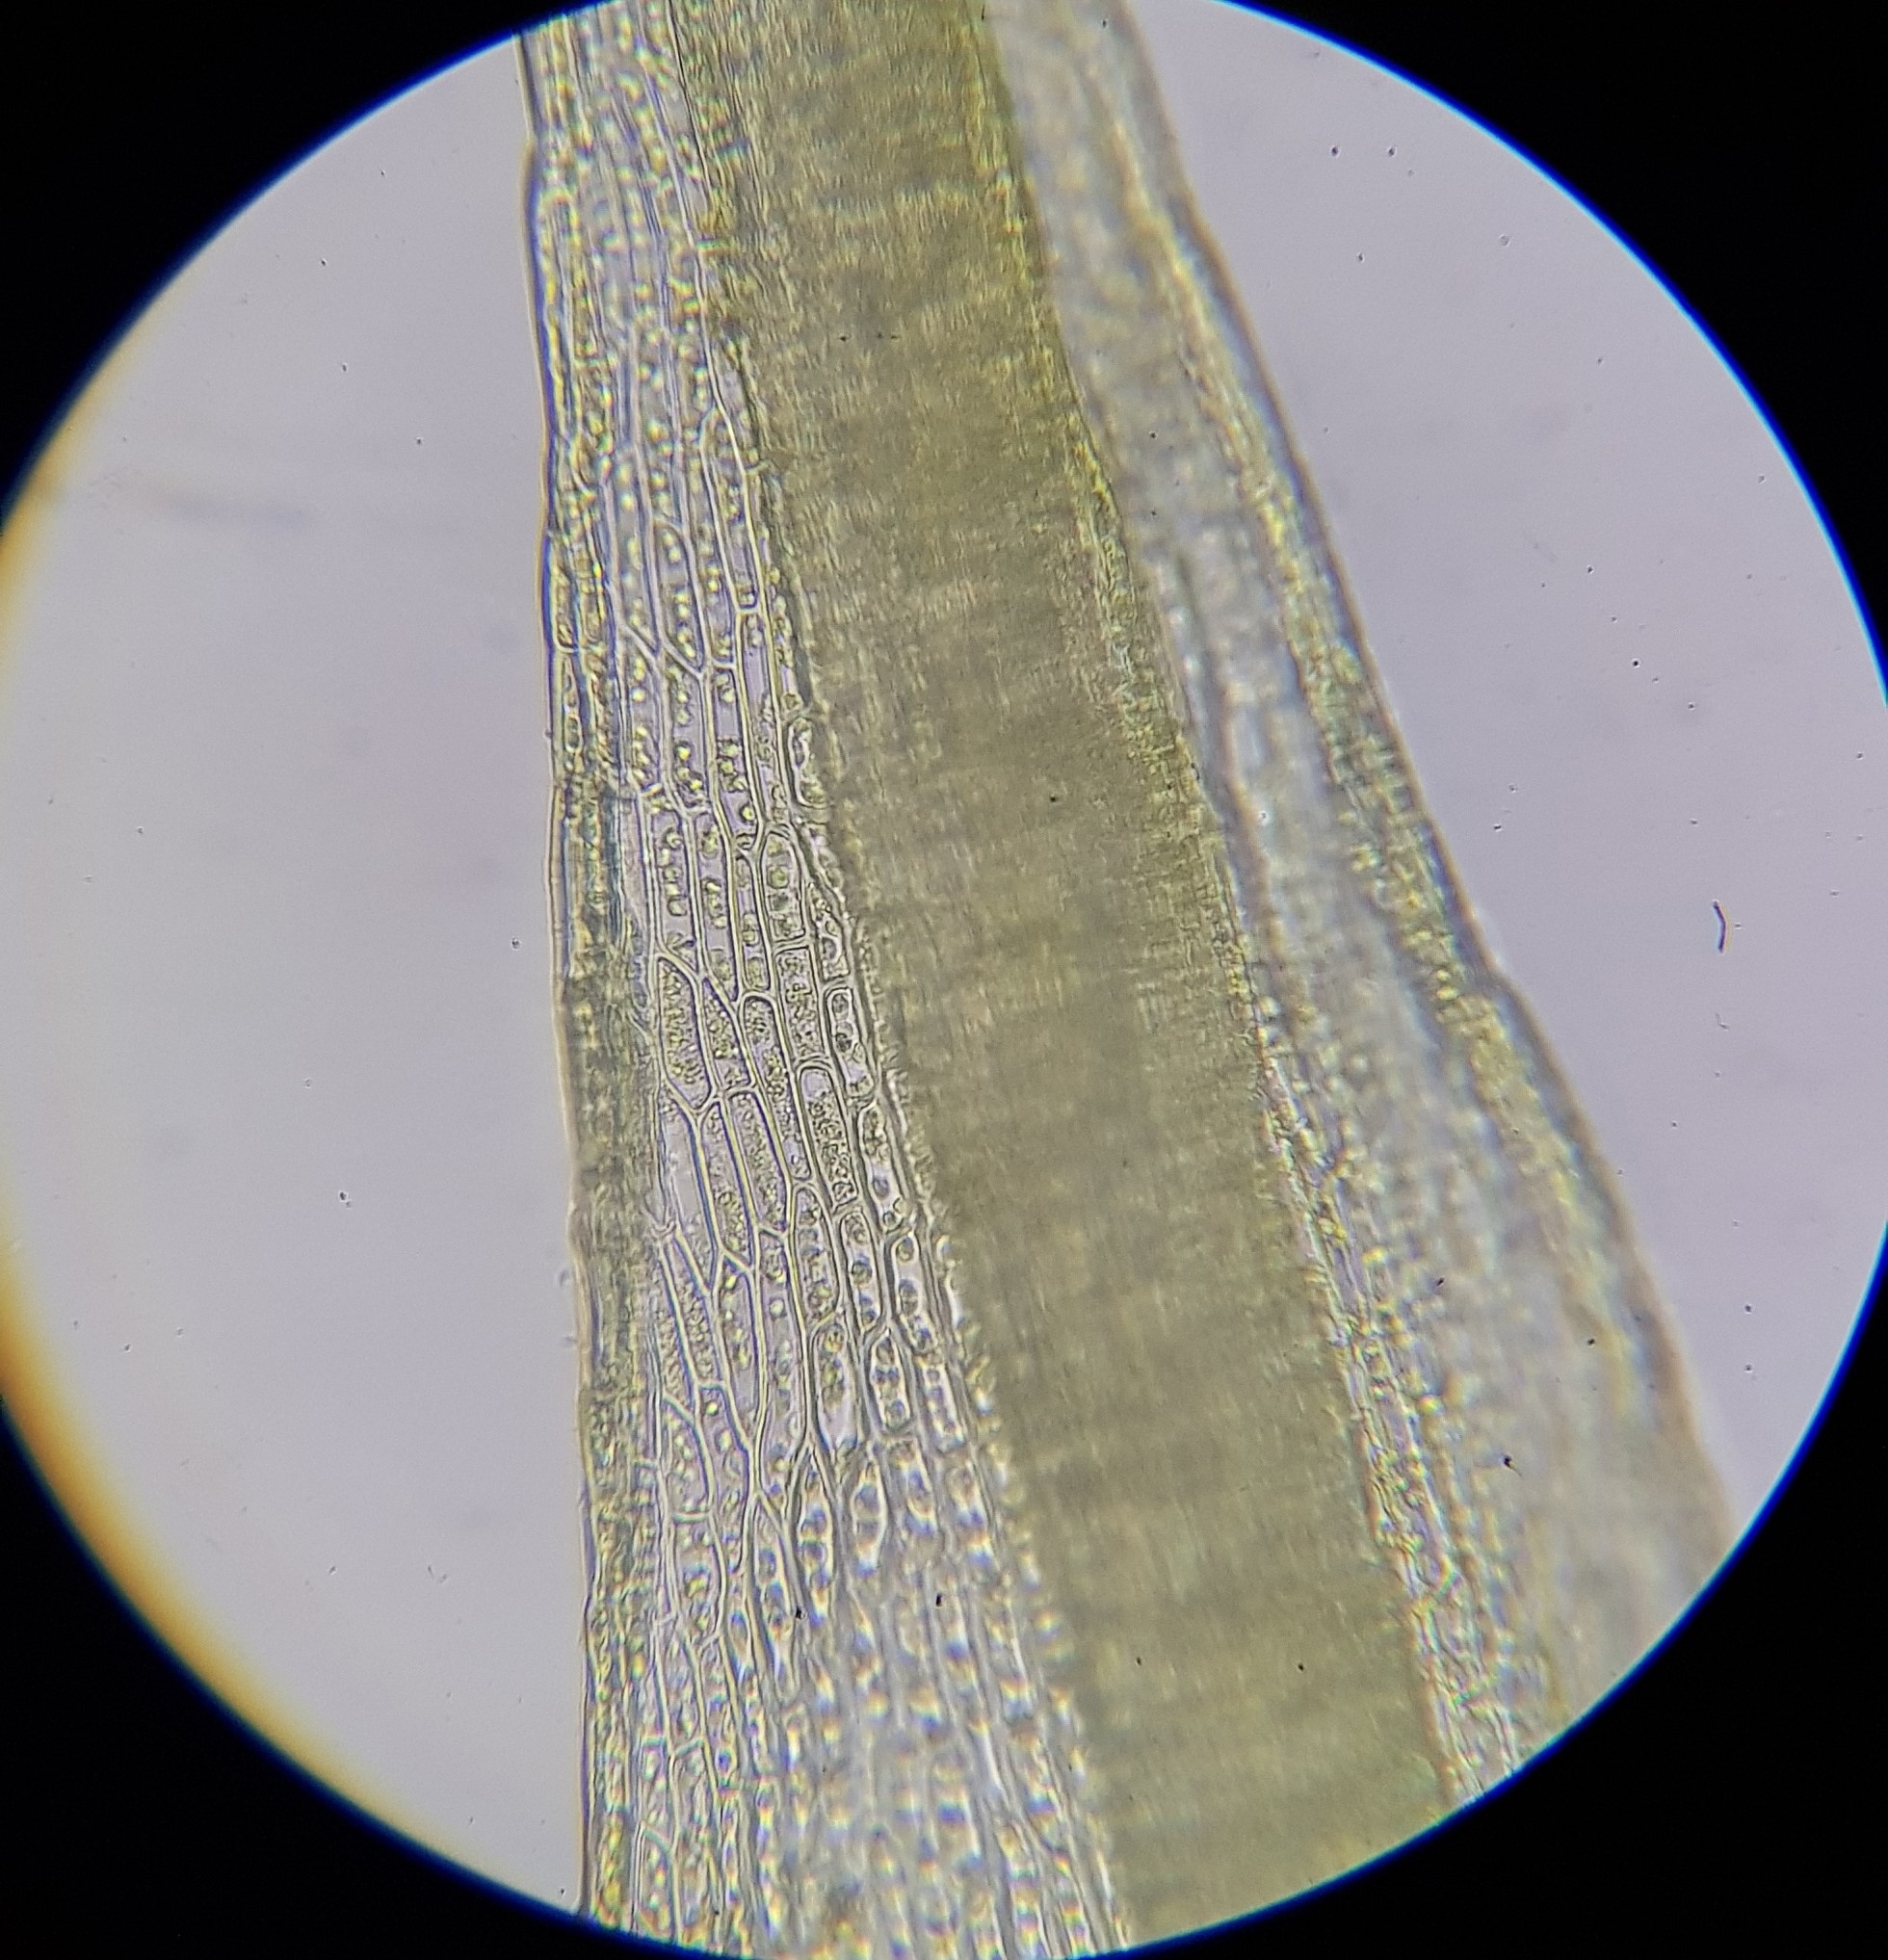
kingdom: Plantae
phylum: Bryophyta
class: Bryopsida
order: Dicranales
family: Dicranellaceae
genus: Dicranella
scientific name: Dicranella varia
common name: Variable forklet moss
